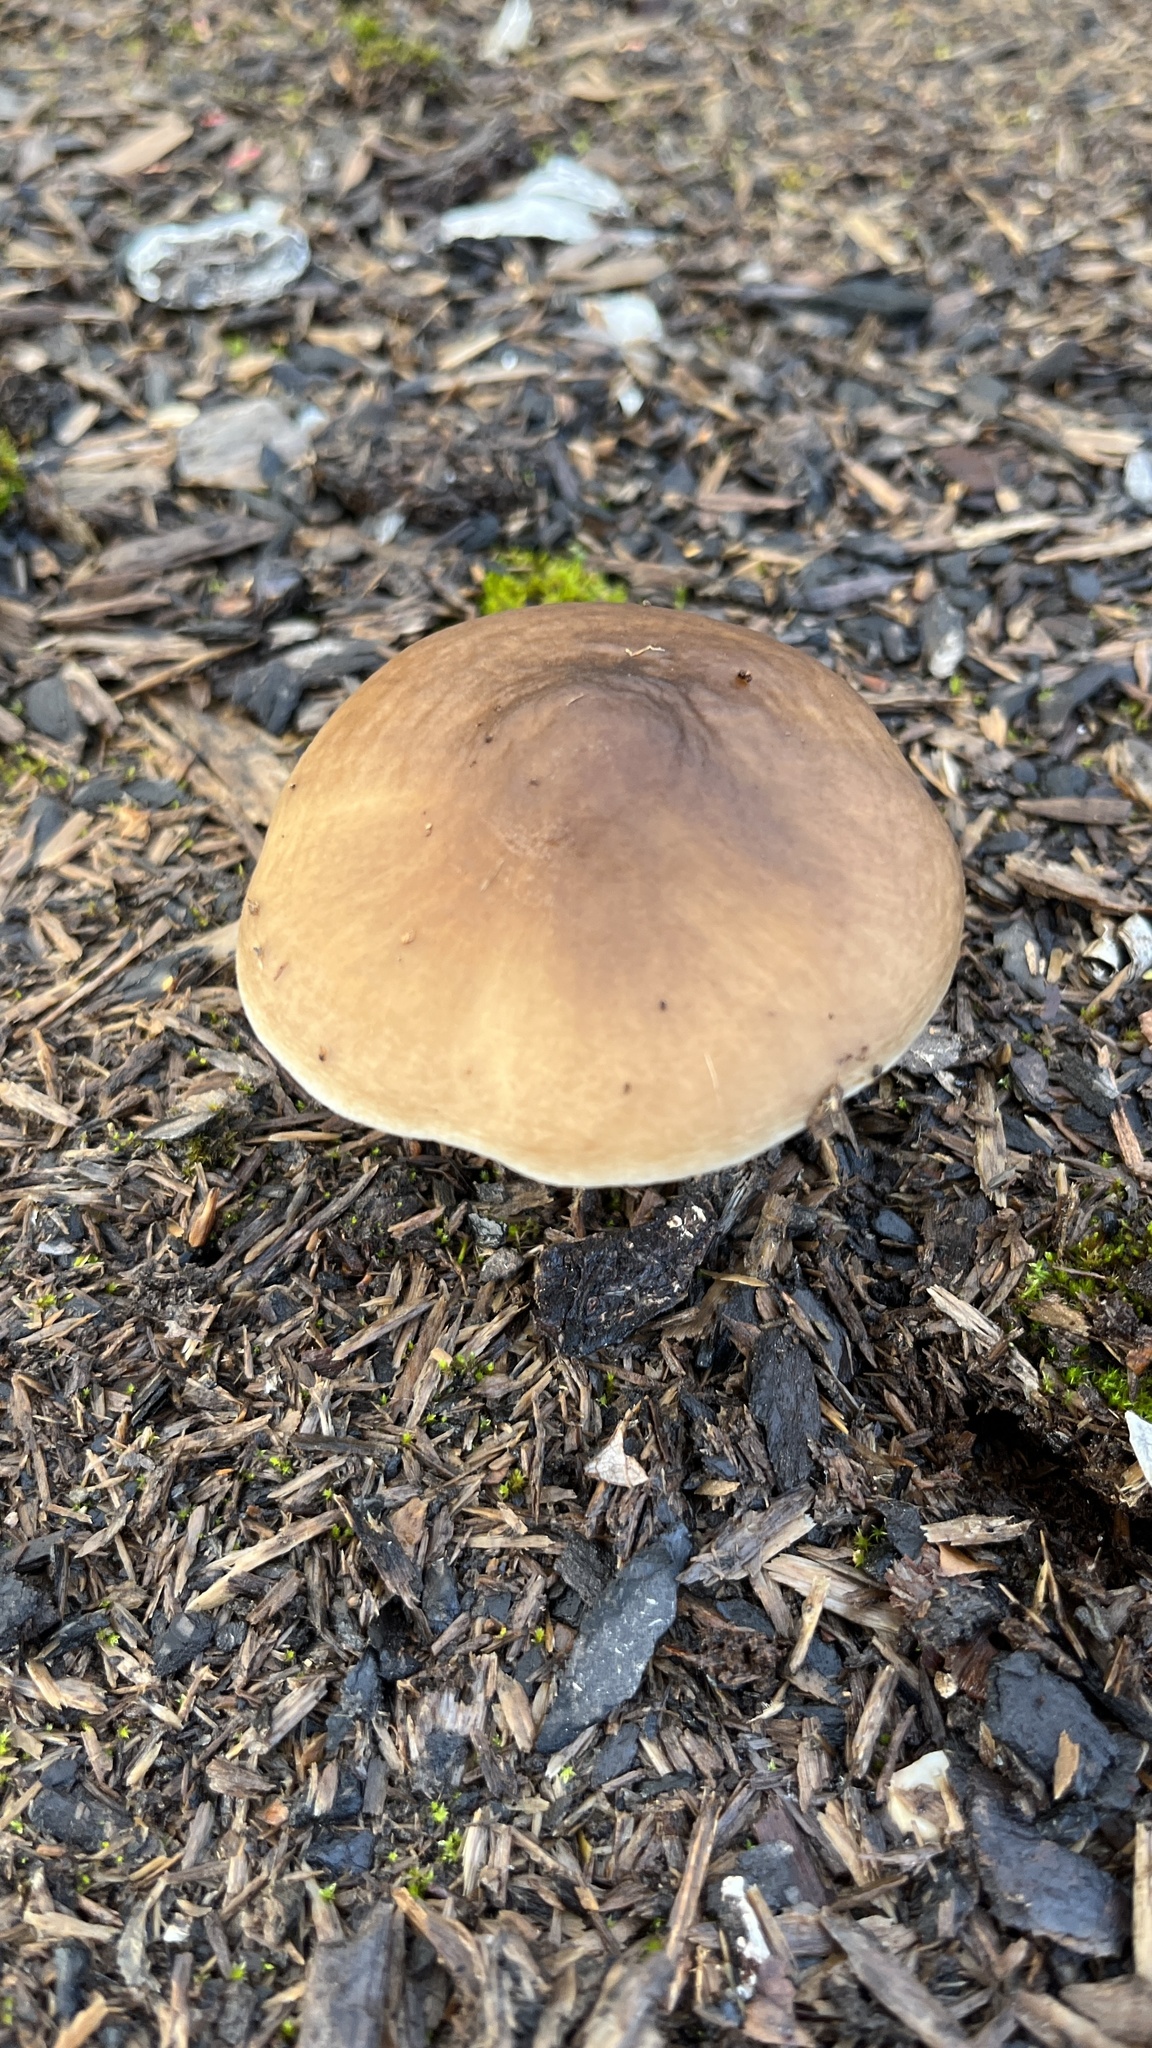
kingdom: Fungi
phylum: Basidiomycota
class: Agaricomycetes
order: Agaricales
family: Pluteaceae
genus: Pluteus
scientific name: Pluteus cervinus
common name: Deer shield
